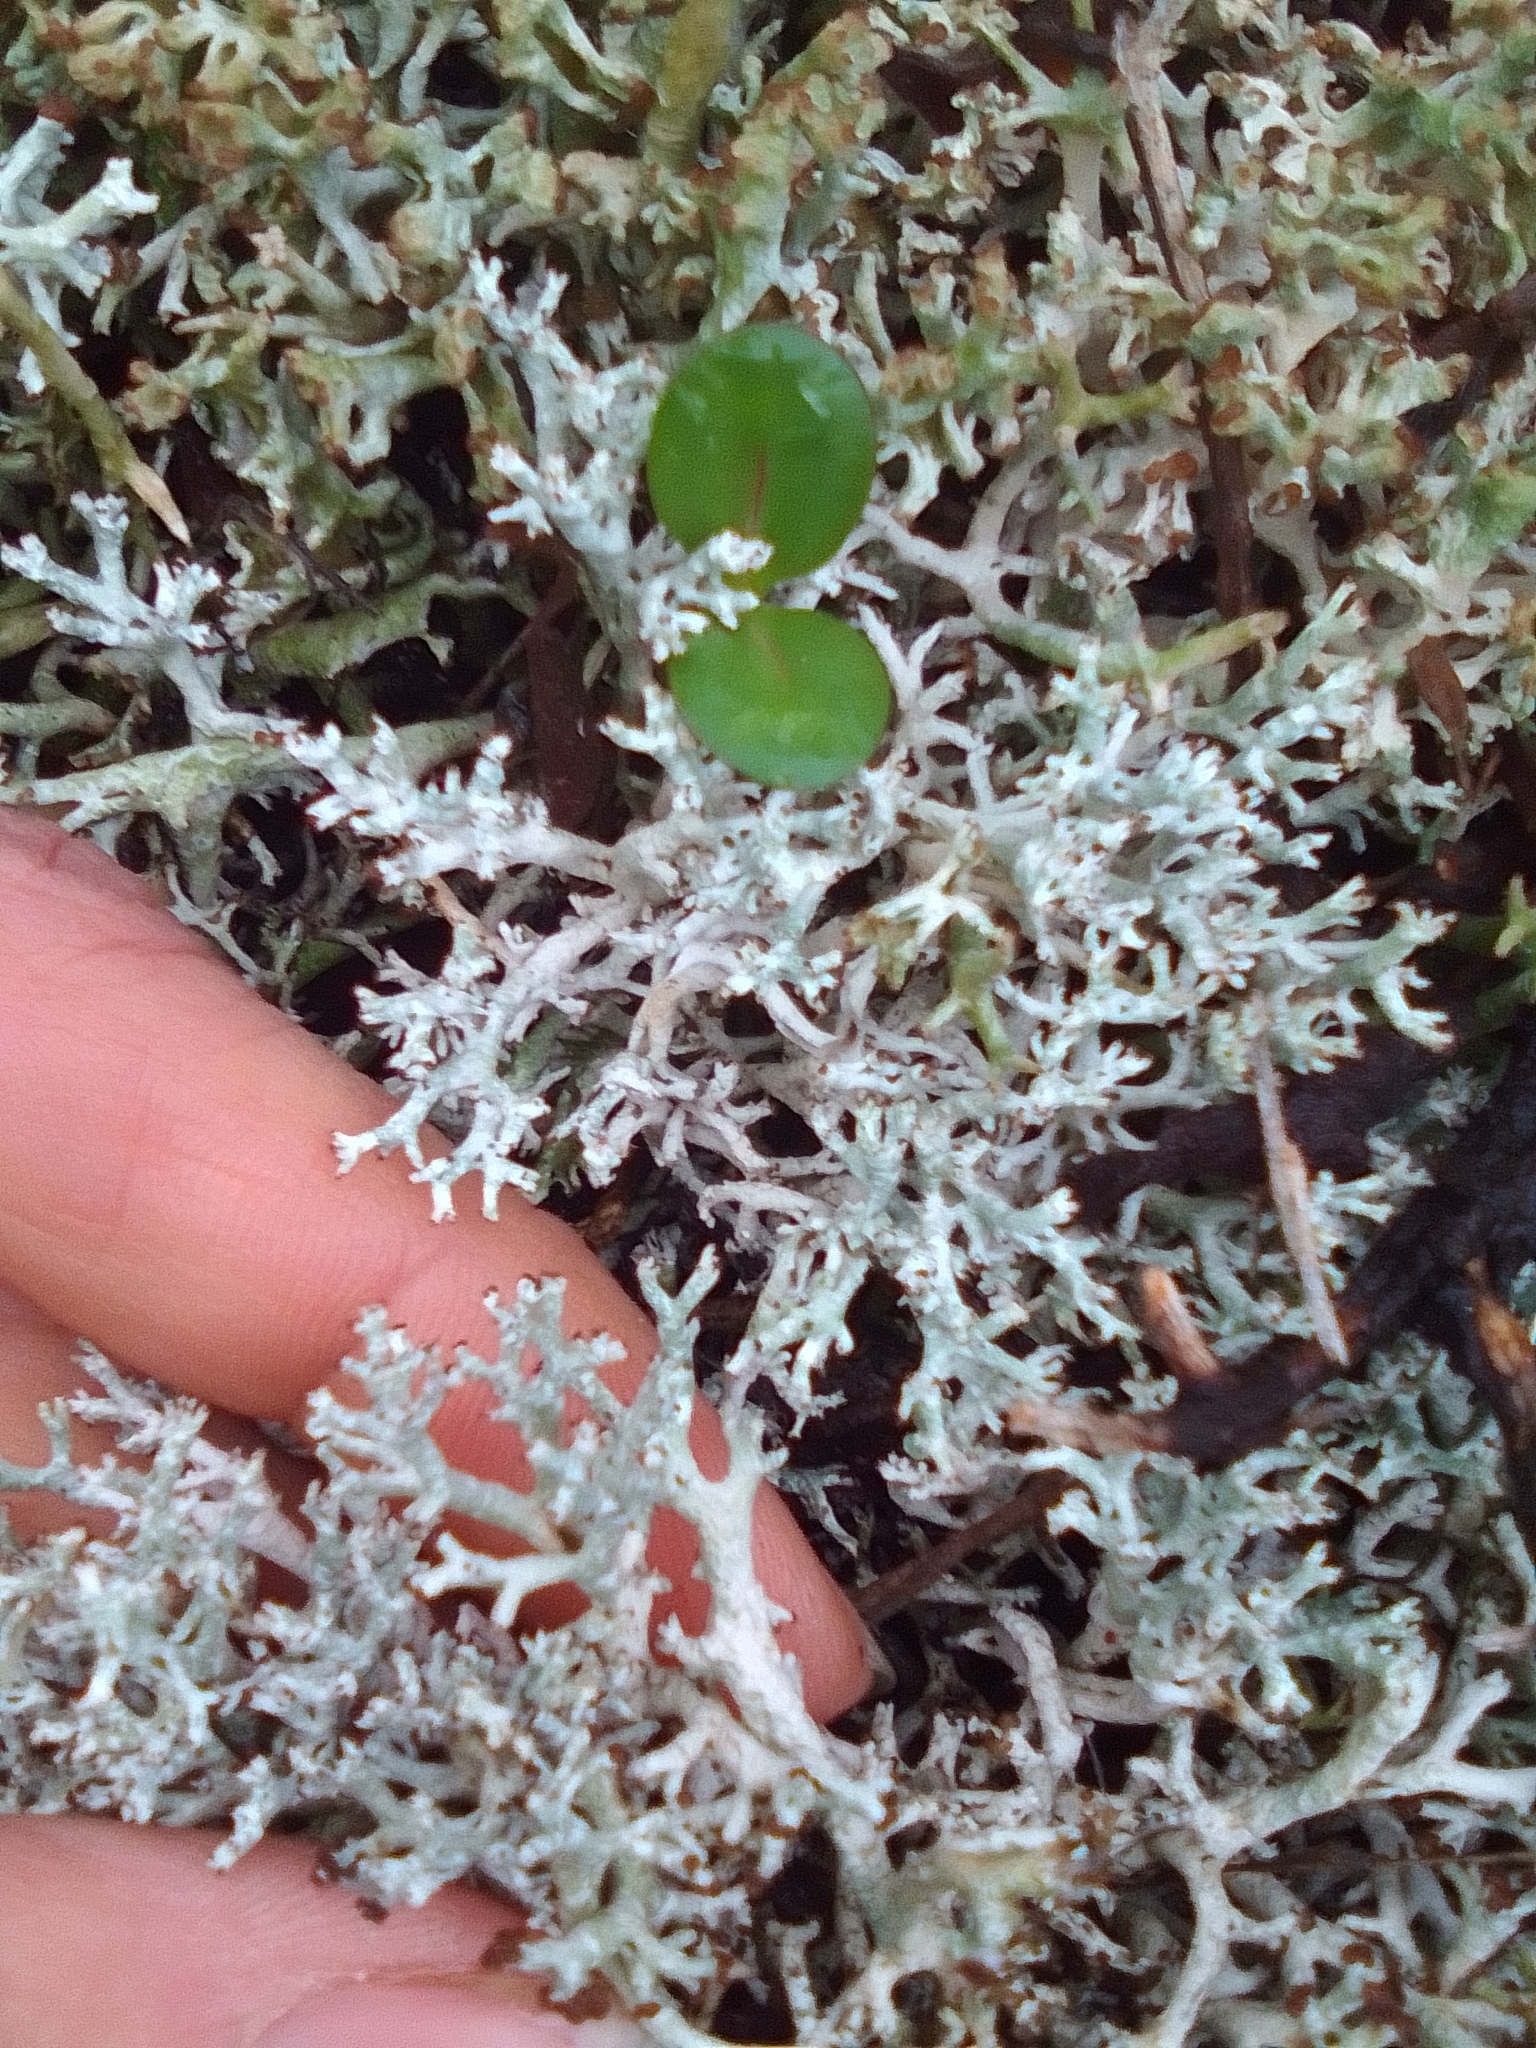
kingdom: Fungi
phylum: Ascomycota
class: Lecanoromycetes
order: Lecanorales
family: Cladoniaceae
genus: Cladonia
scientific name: Cladonia furcata
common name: Many-forked cladonia
